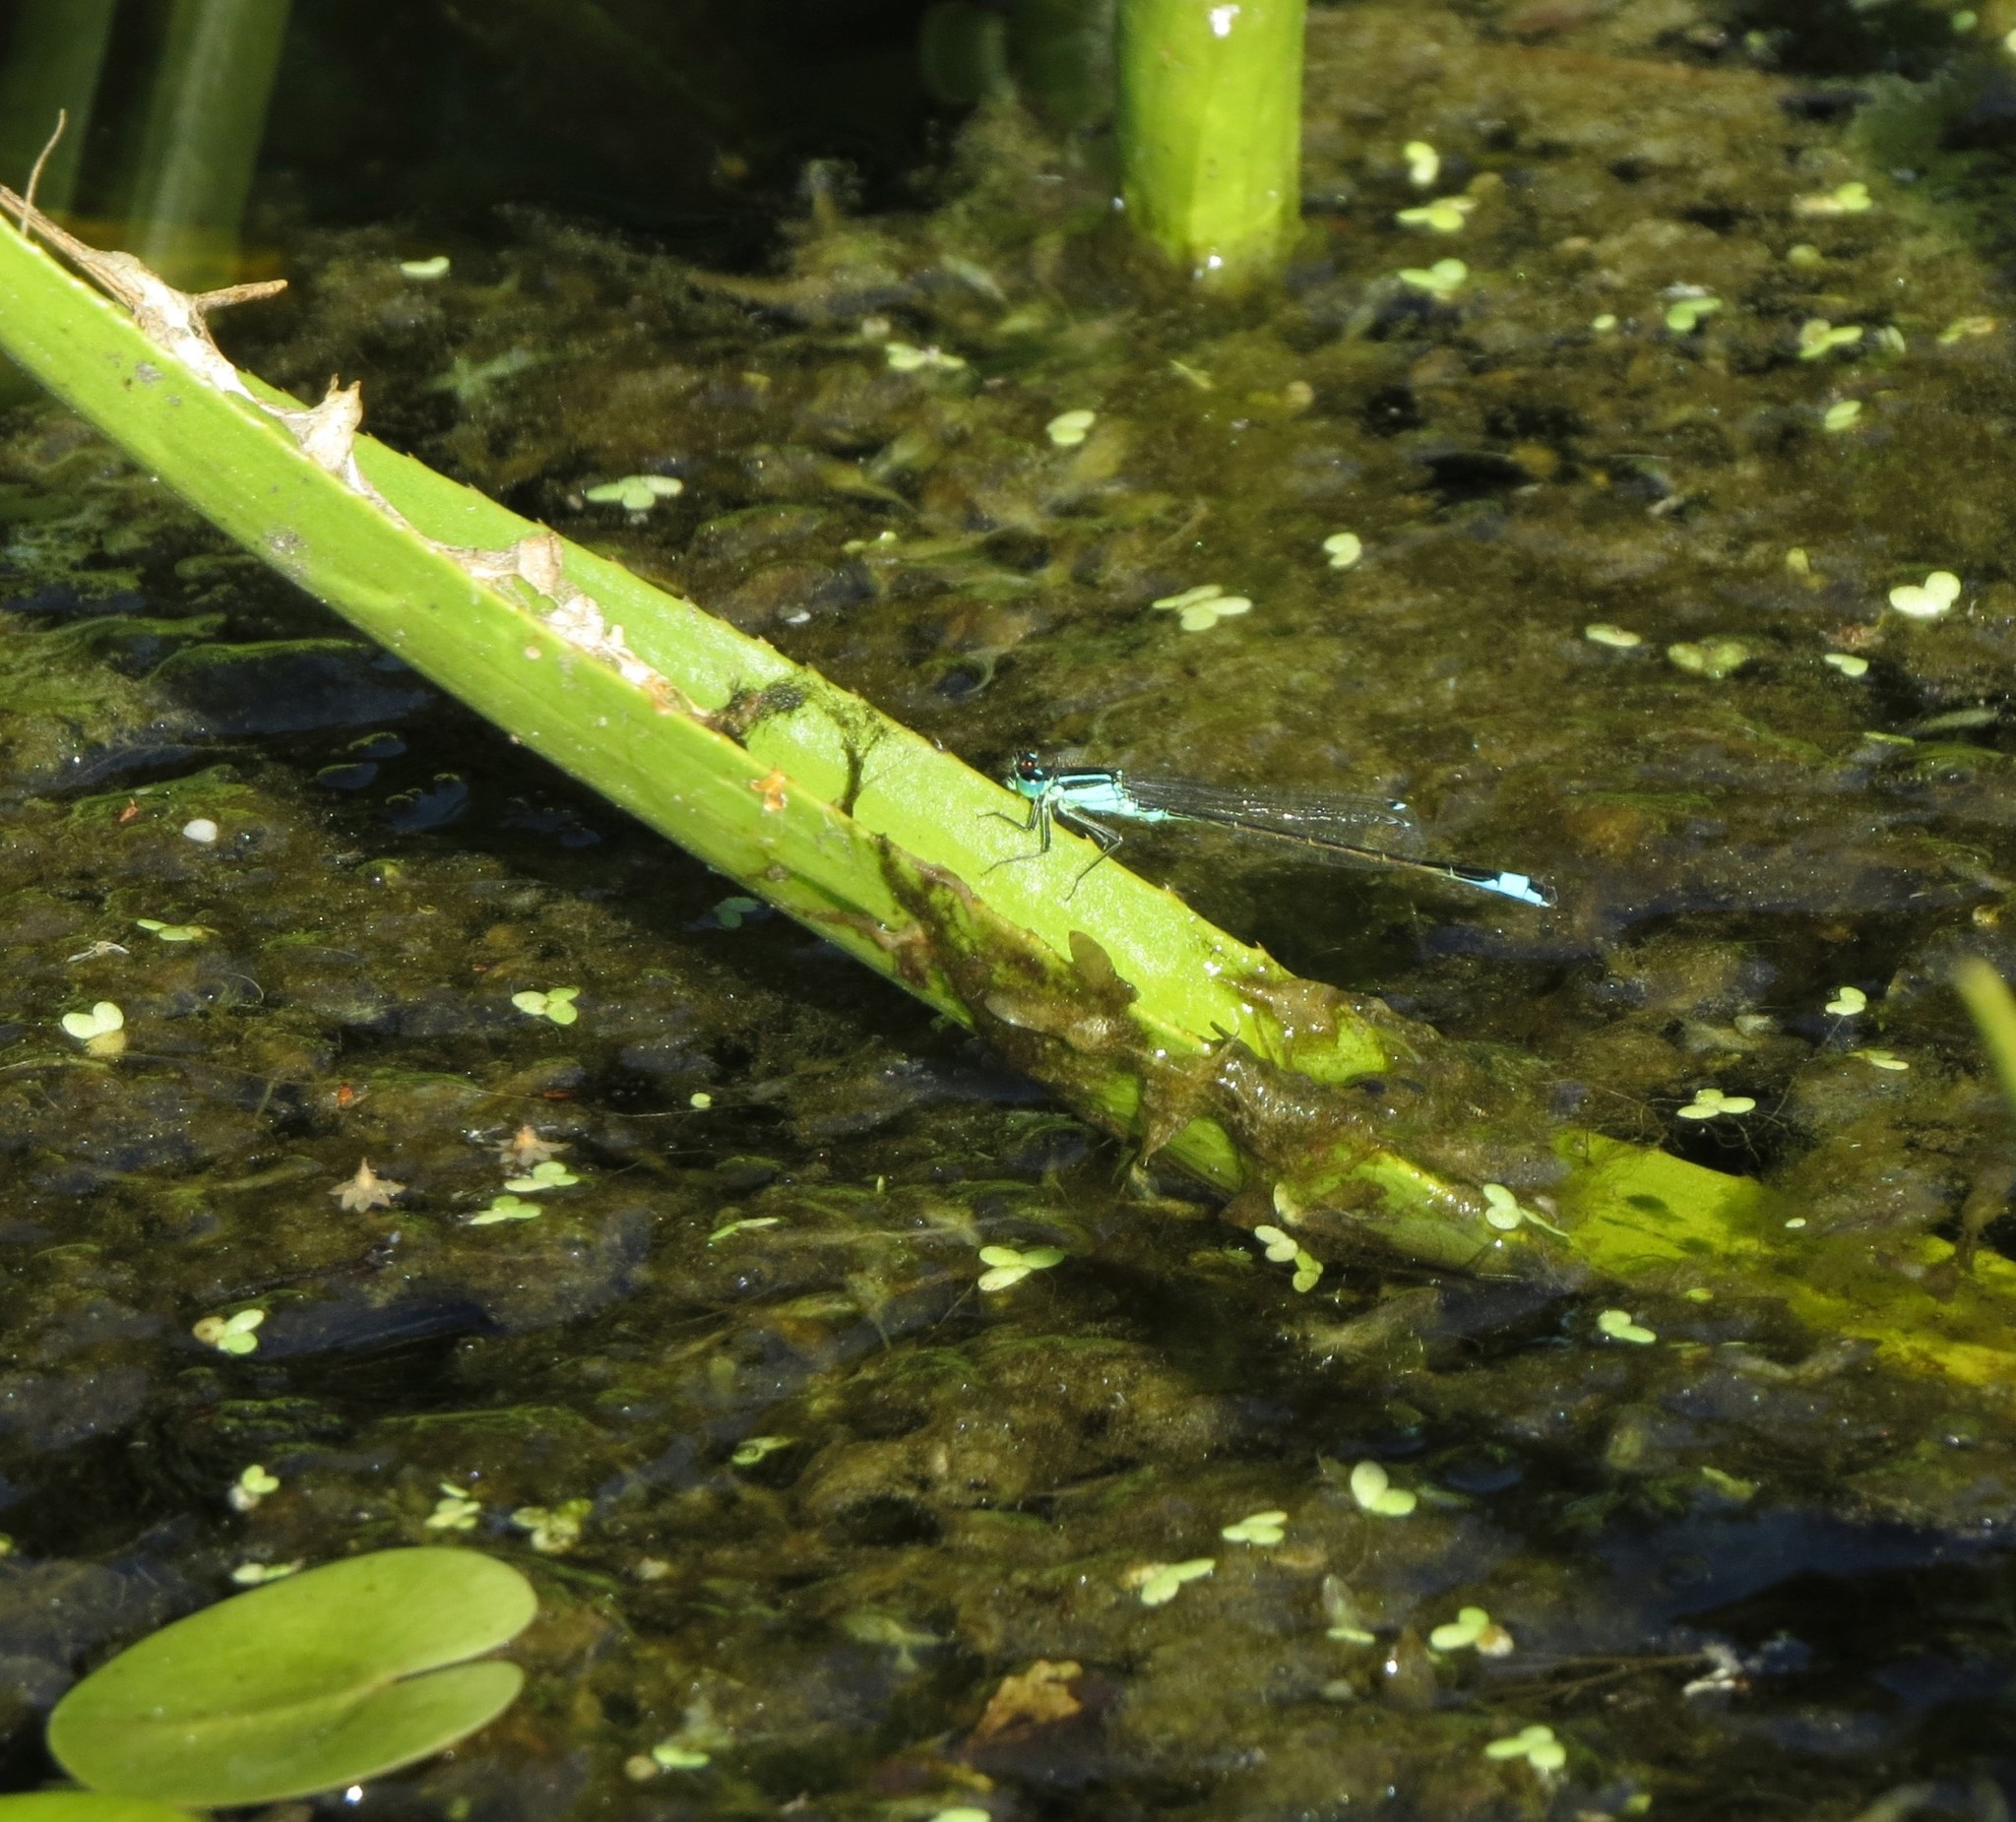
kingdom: Animalia
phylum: Arthropoda
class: Insecta
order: Odonata
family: Coenagrionidae
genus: Ischnura
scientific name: Ischnura elegans
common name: Blue-tailed damselfly
